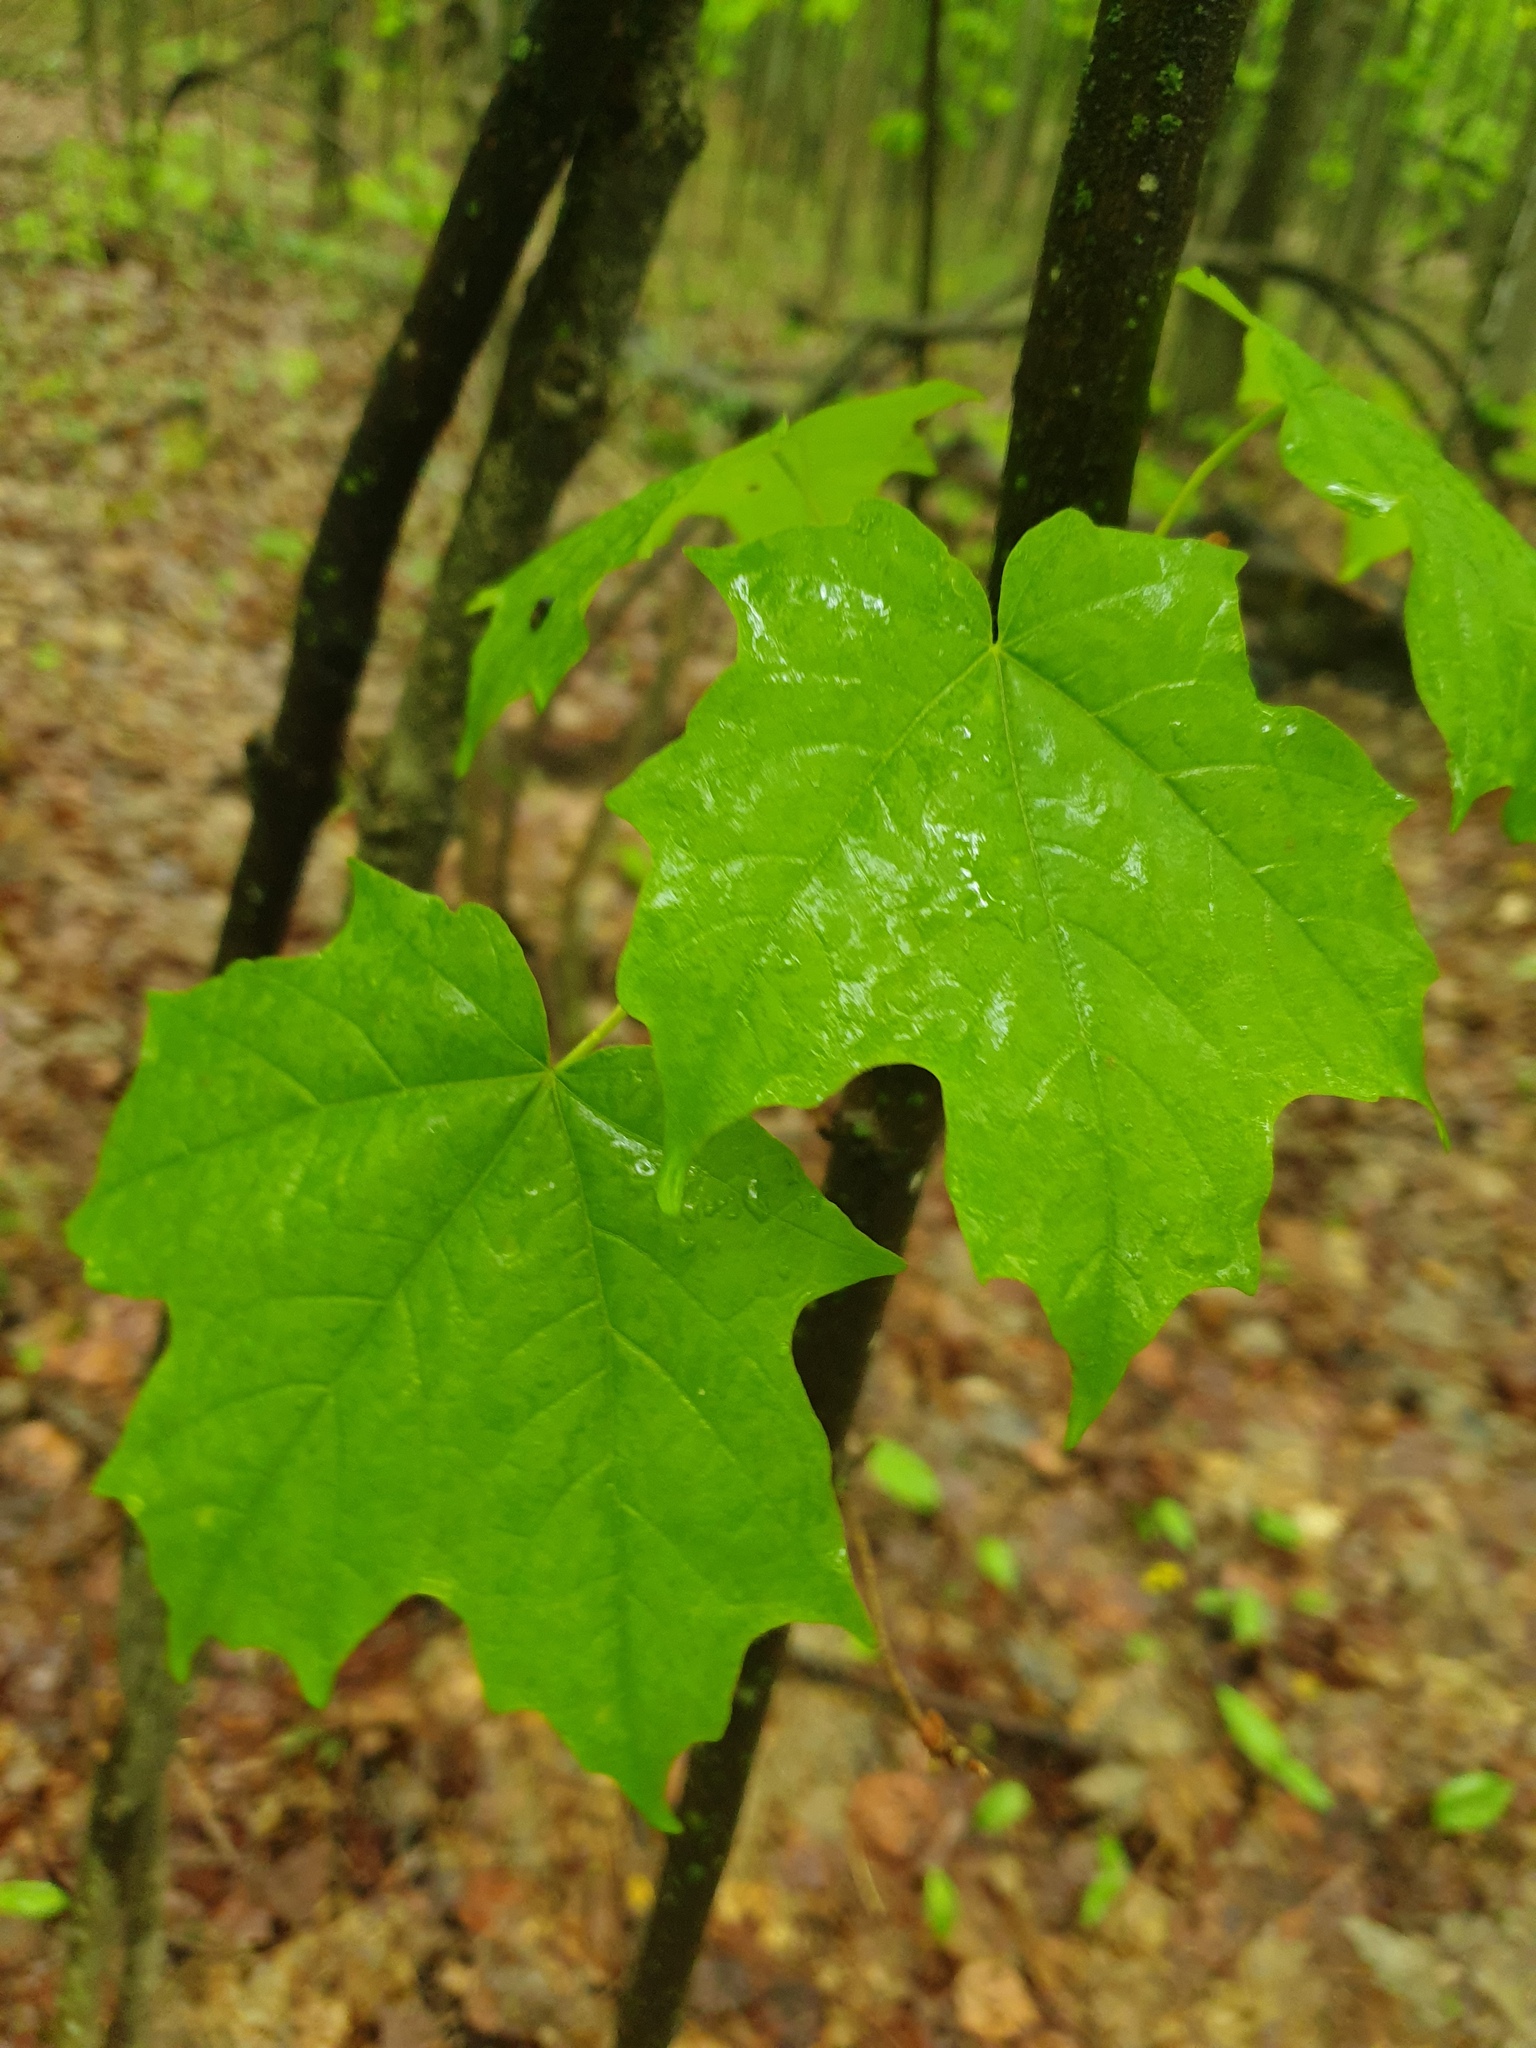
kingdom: Plantae
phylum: Tracheophyta
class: Magnoliopsida
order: Sapindales
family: Sapindaceae
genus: Acer
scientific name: Acer nigrum
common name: Black maple
